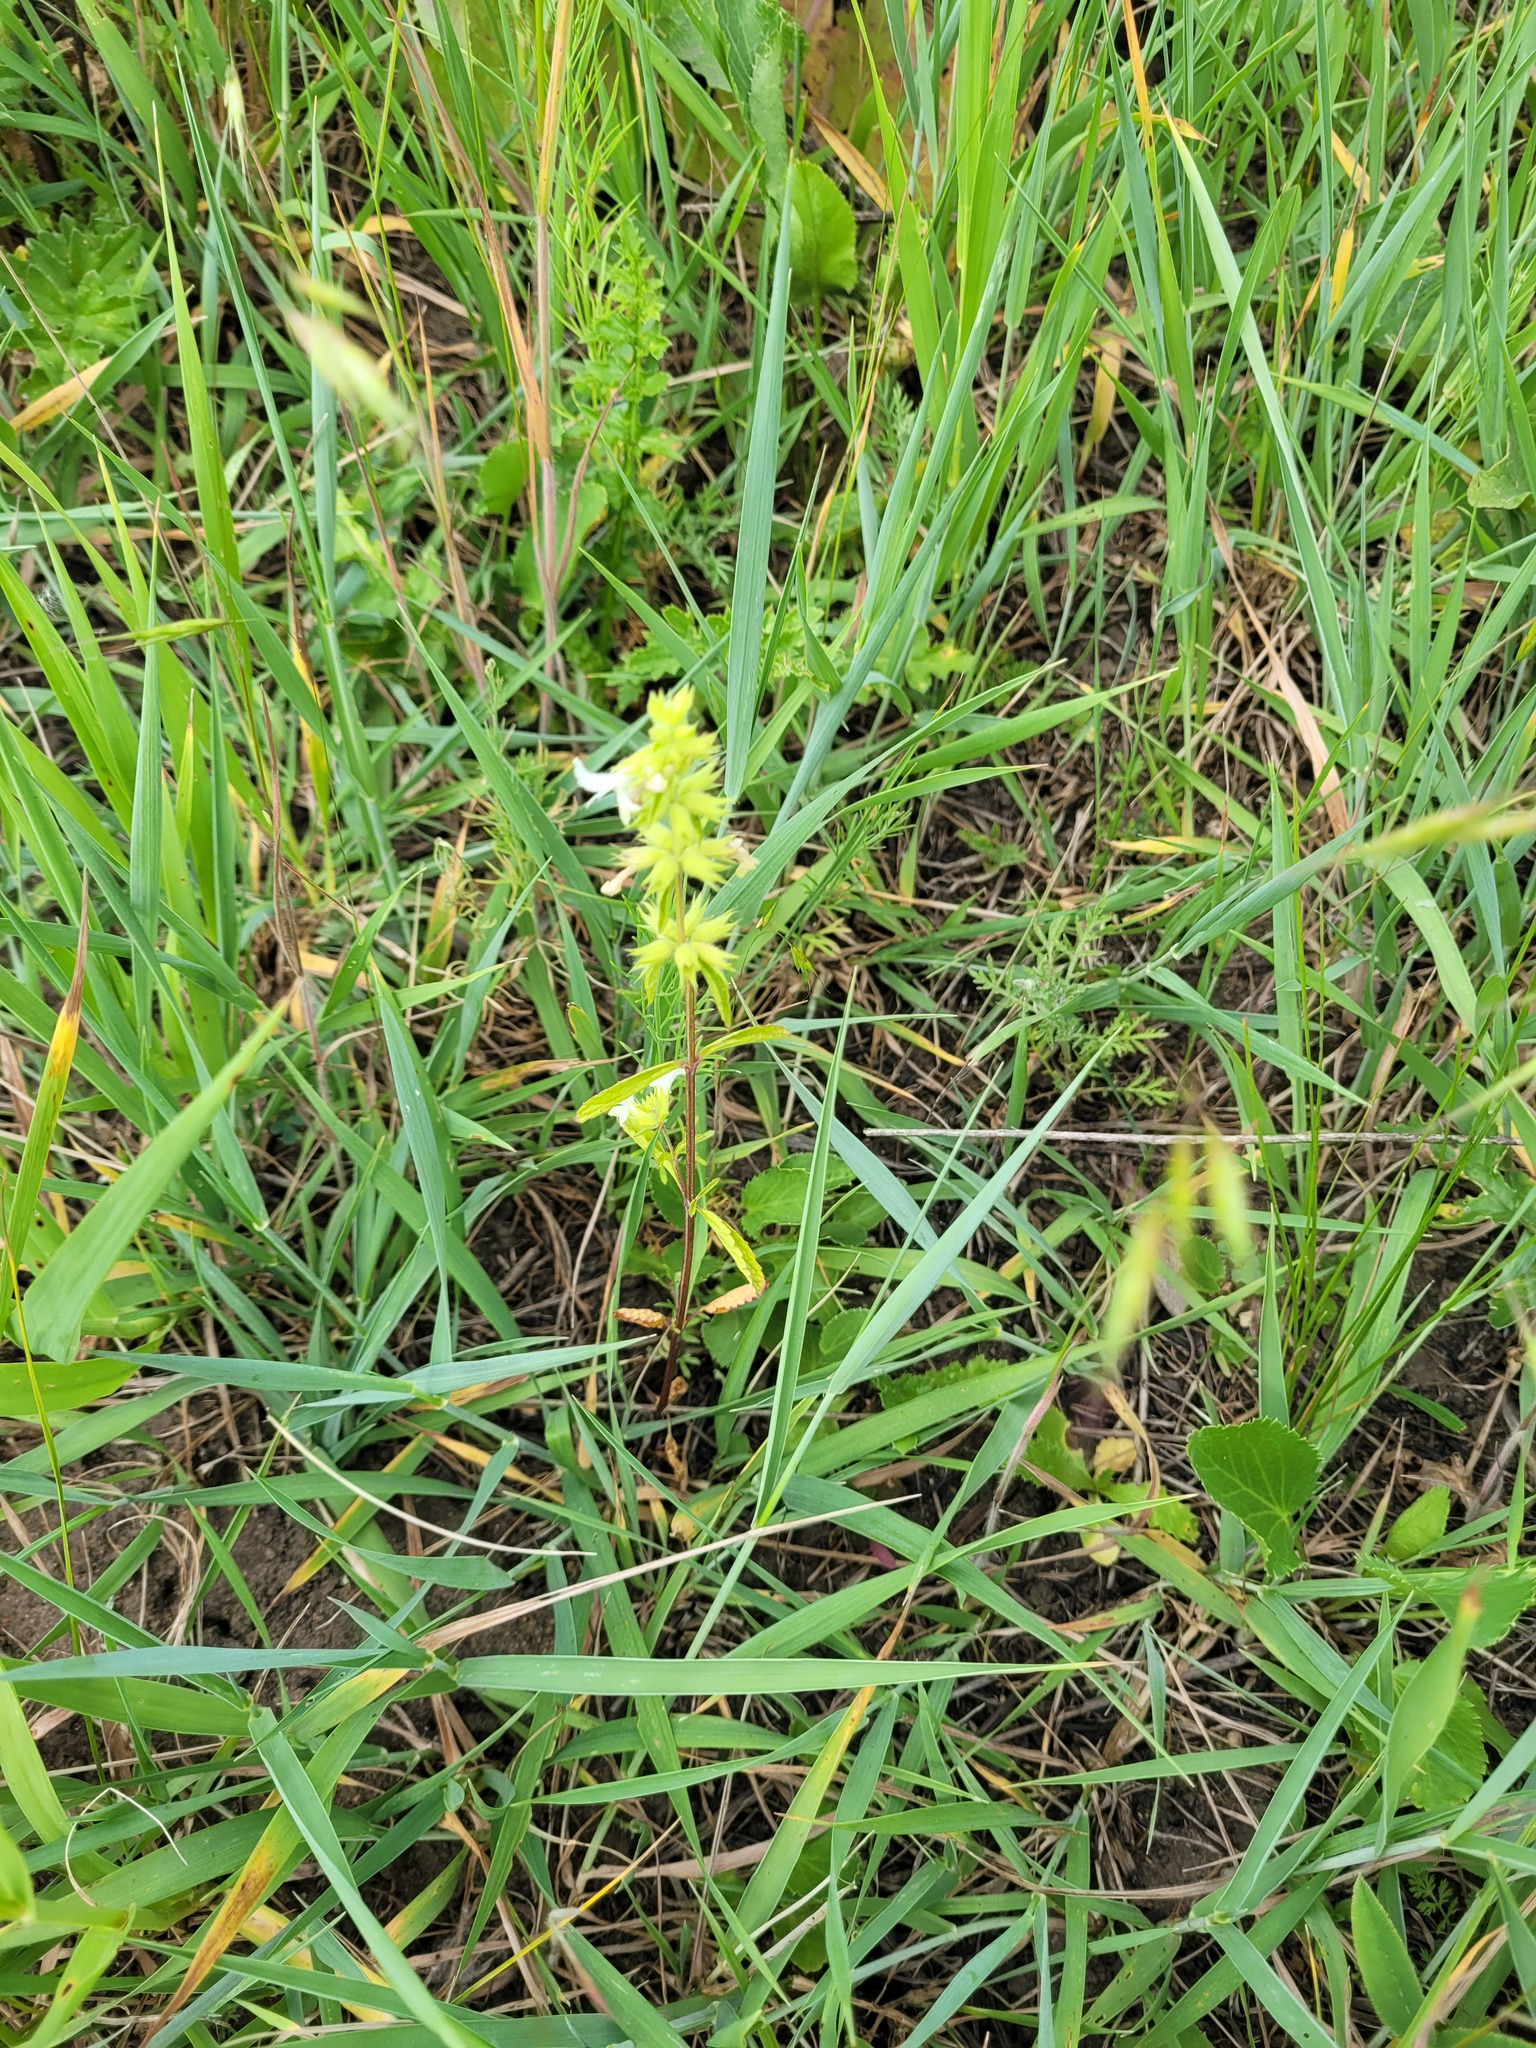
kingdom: Plantae
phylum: Tracheophyta
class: Magnoliopsida
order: Lamiales
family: Lamiaceae
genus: Stachys
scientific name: Stachys annua
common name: Annual yellow-woundwort
